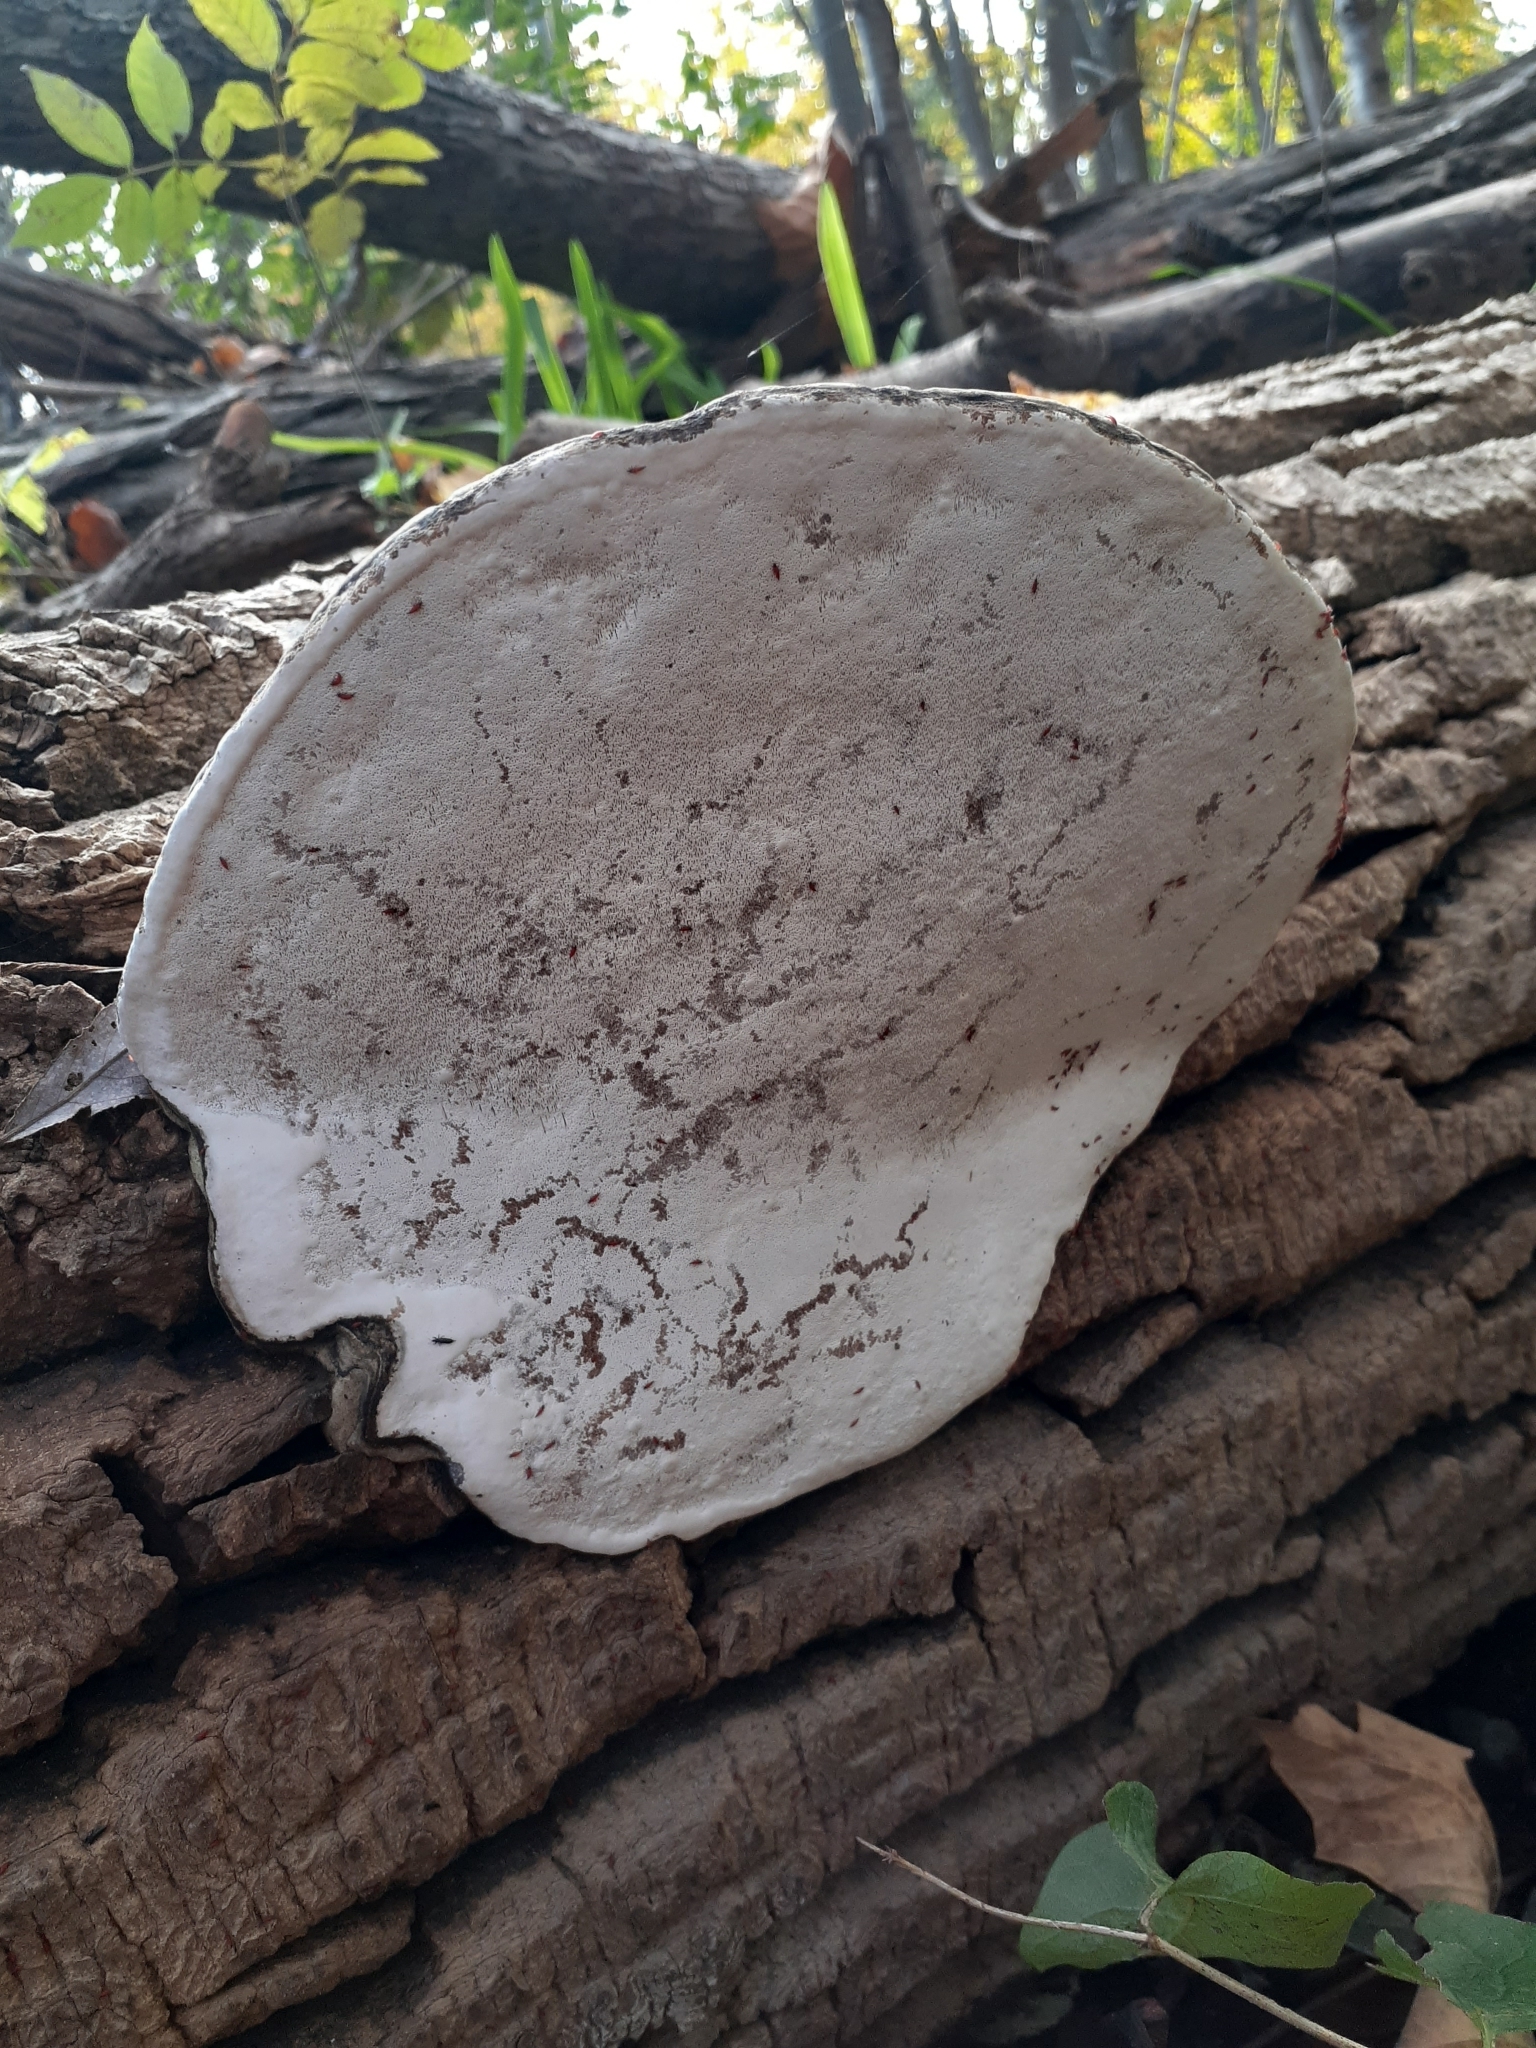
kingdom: Fungi
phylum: Basidiomycota
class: Agaricomycetes
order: Polyporales
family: Polyporaceae
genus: Ganoderma
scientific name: Ganoderma applanatum
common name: Artist's bracket
